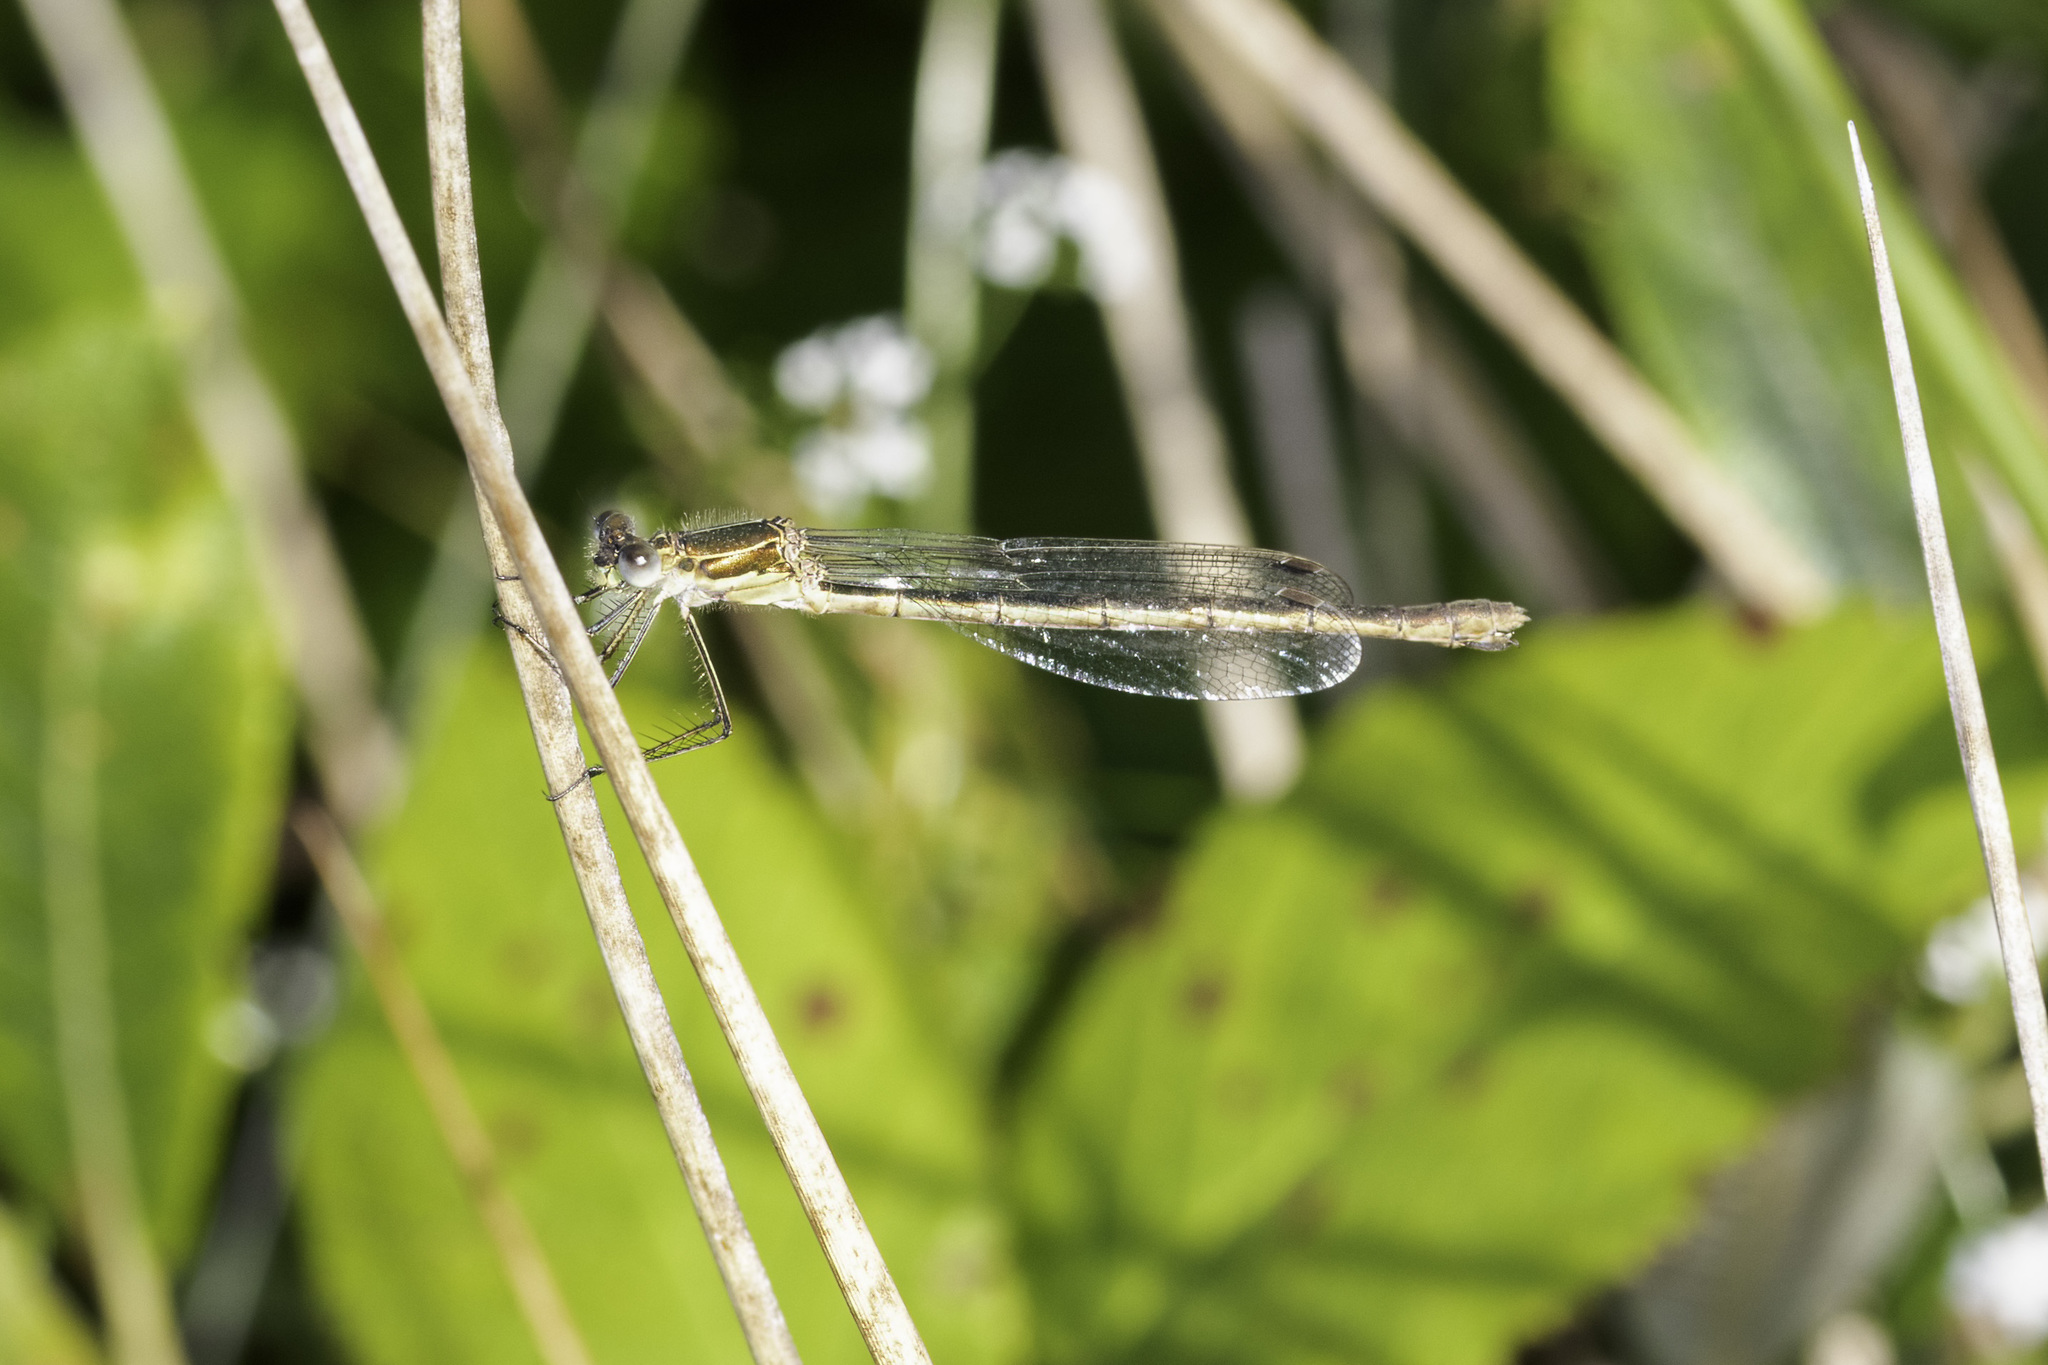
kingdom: Animalia
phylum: Arthropoda
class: Insecta
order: Odonata
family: Lestidae
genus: Lestes
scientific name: Lestes sponsa
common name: Common spreadwing
